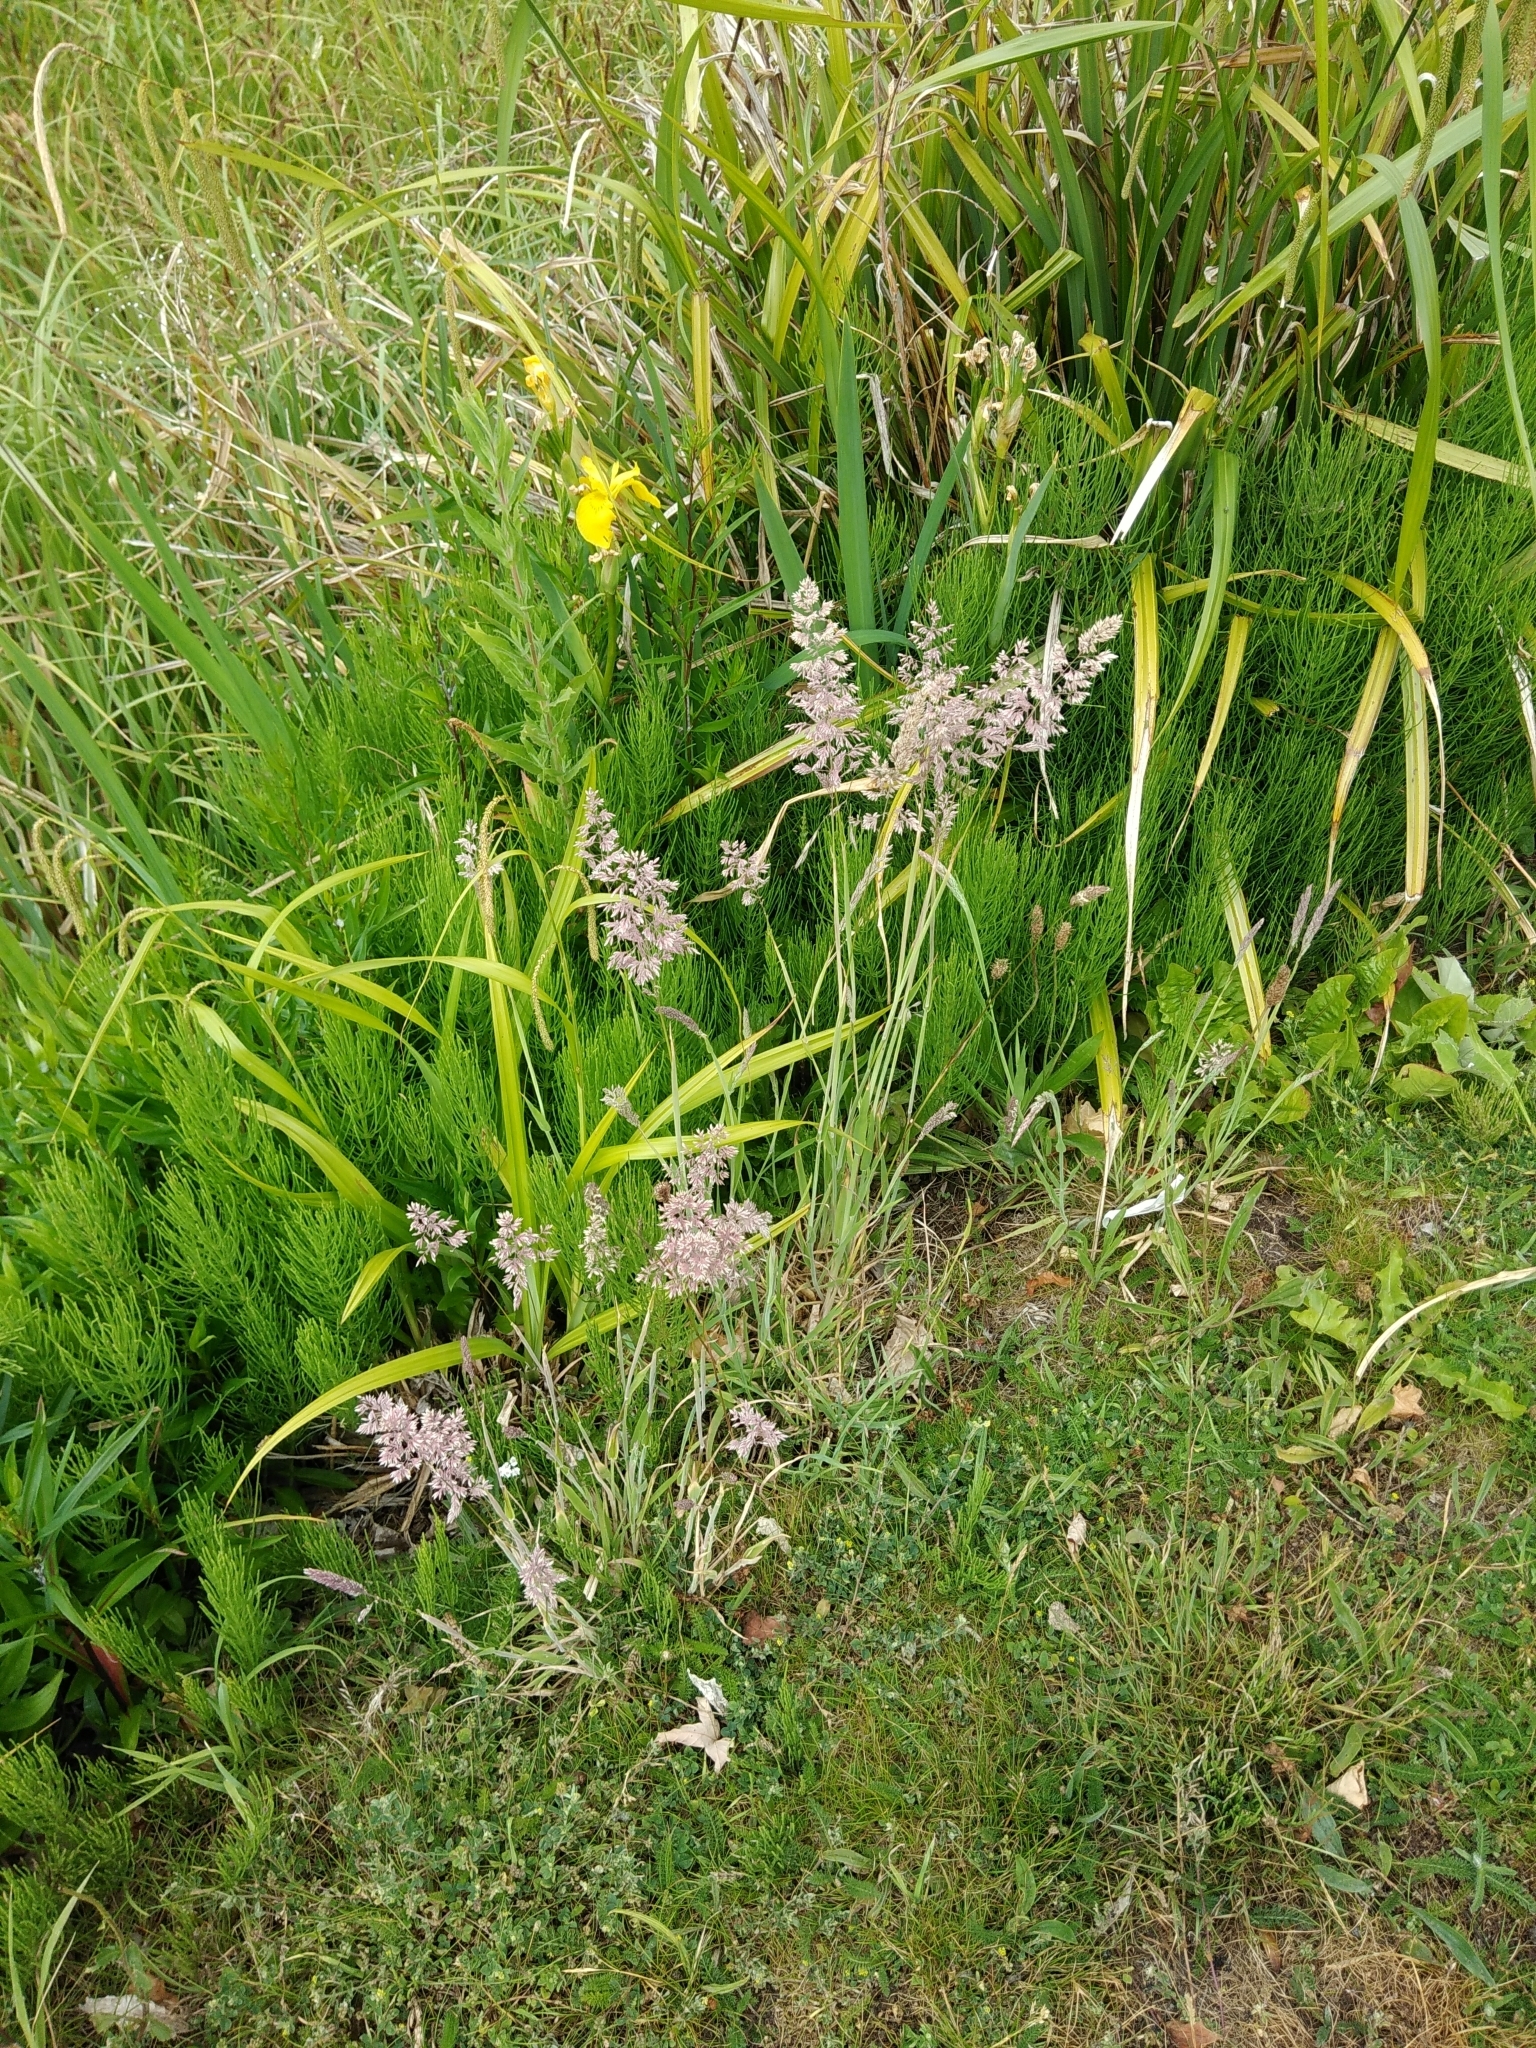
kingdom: Plantae
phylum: Tracheophyta
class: Liliopsida
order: Poales
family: Poaceae
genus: Holcus
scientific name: Holcus lanatus
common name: Yorkshire-fog
